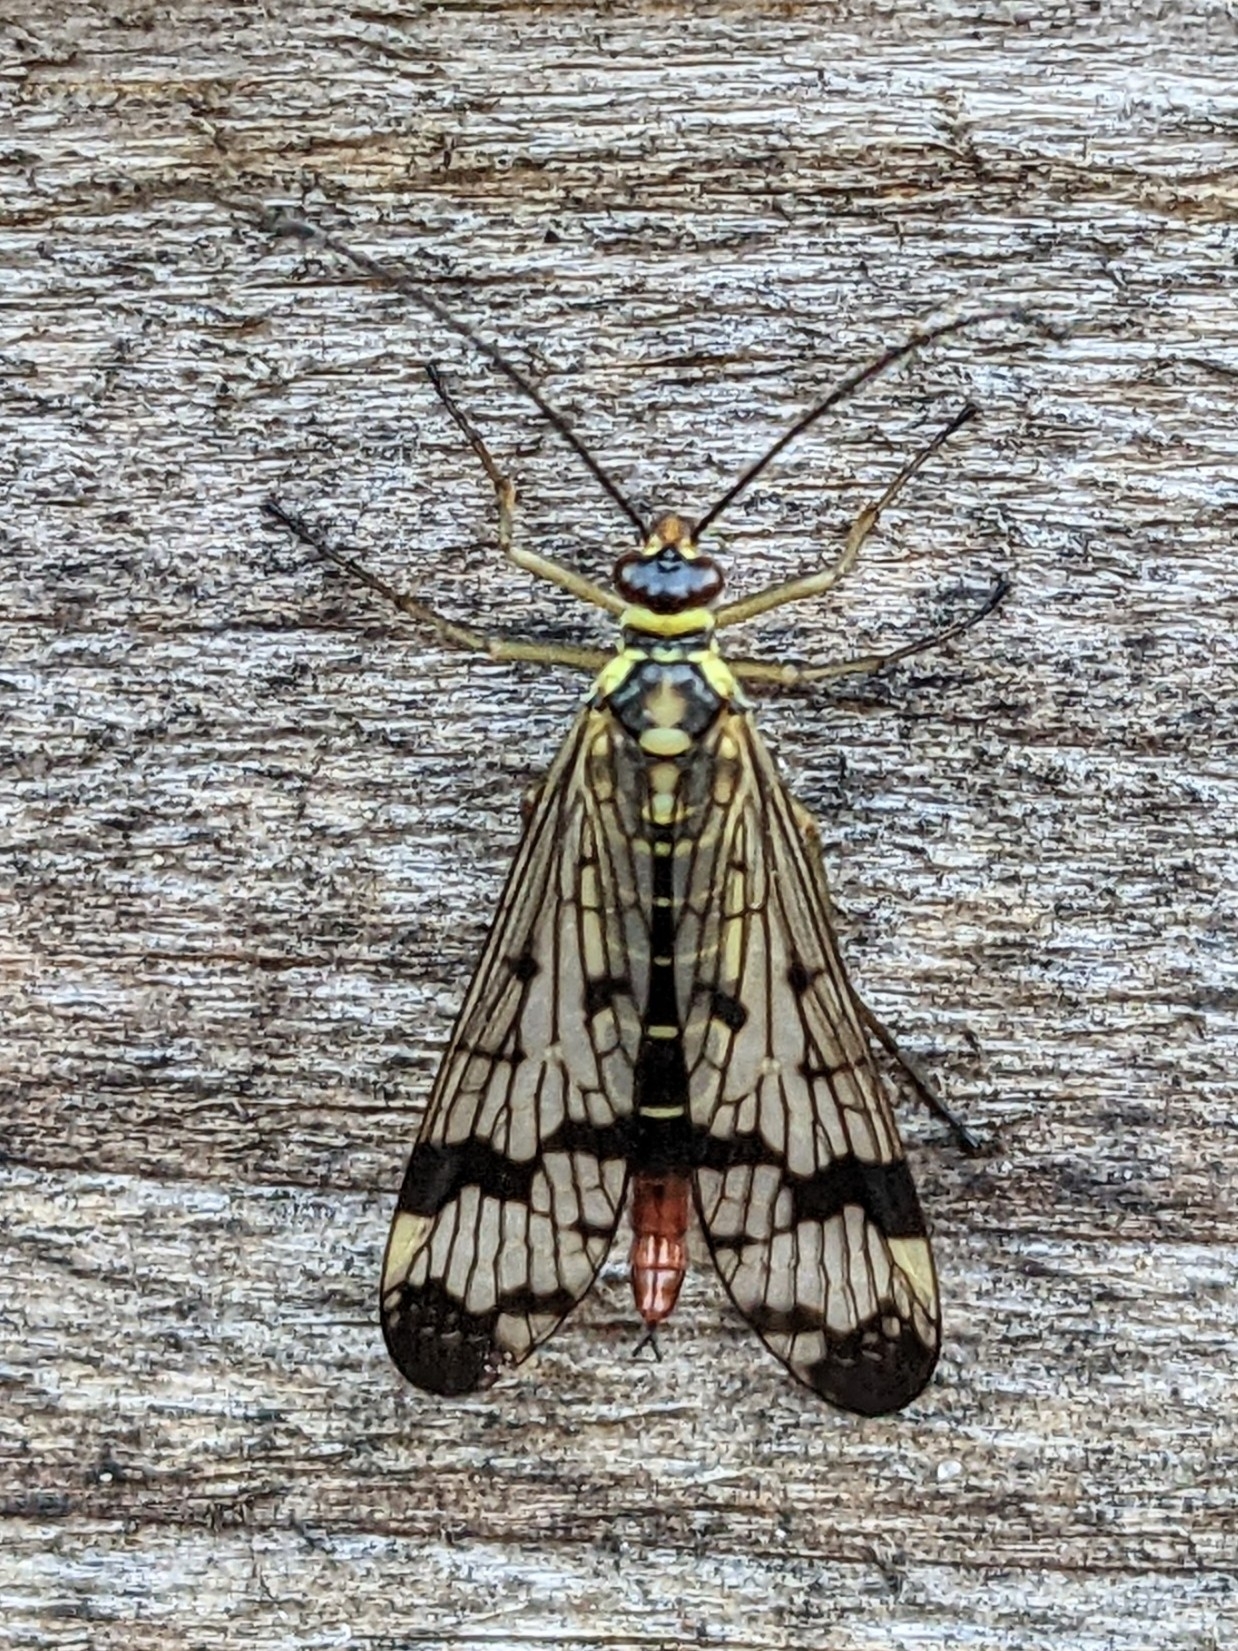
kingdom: Animalia
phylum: Arthropoda
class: Insecta
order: Mecoptera
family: Panorpidae
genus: Panorpa
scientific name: Panorpa communis
